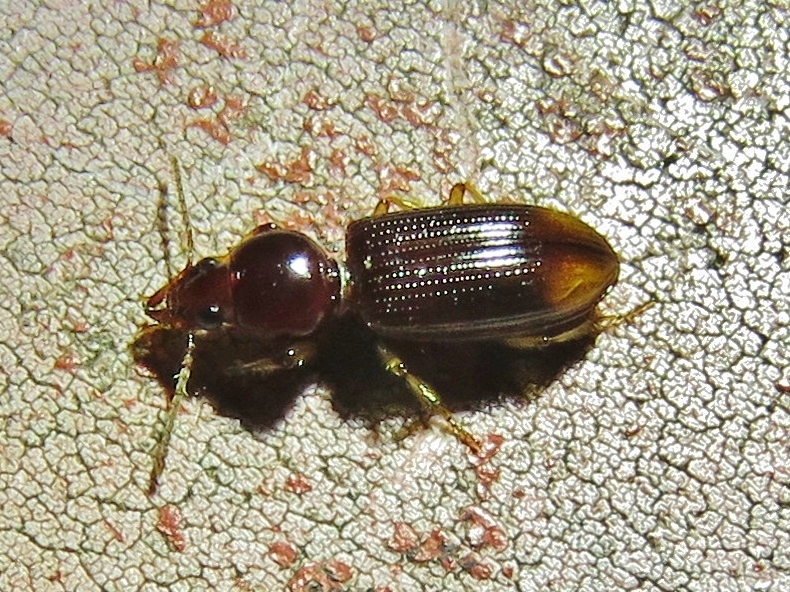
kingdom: Animalia
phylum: Arthropoda
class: Insecta
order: Coleoptera
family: Carabidae
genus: Aspidoglossa
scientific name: Aspidoglossa subangulata
